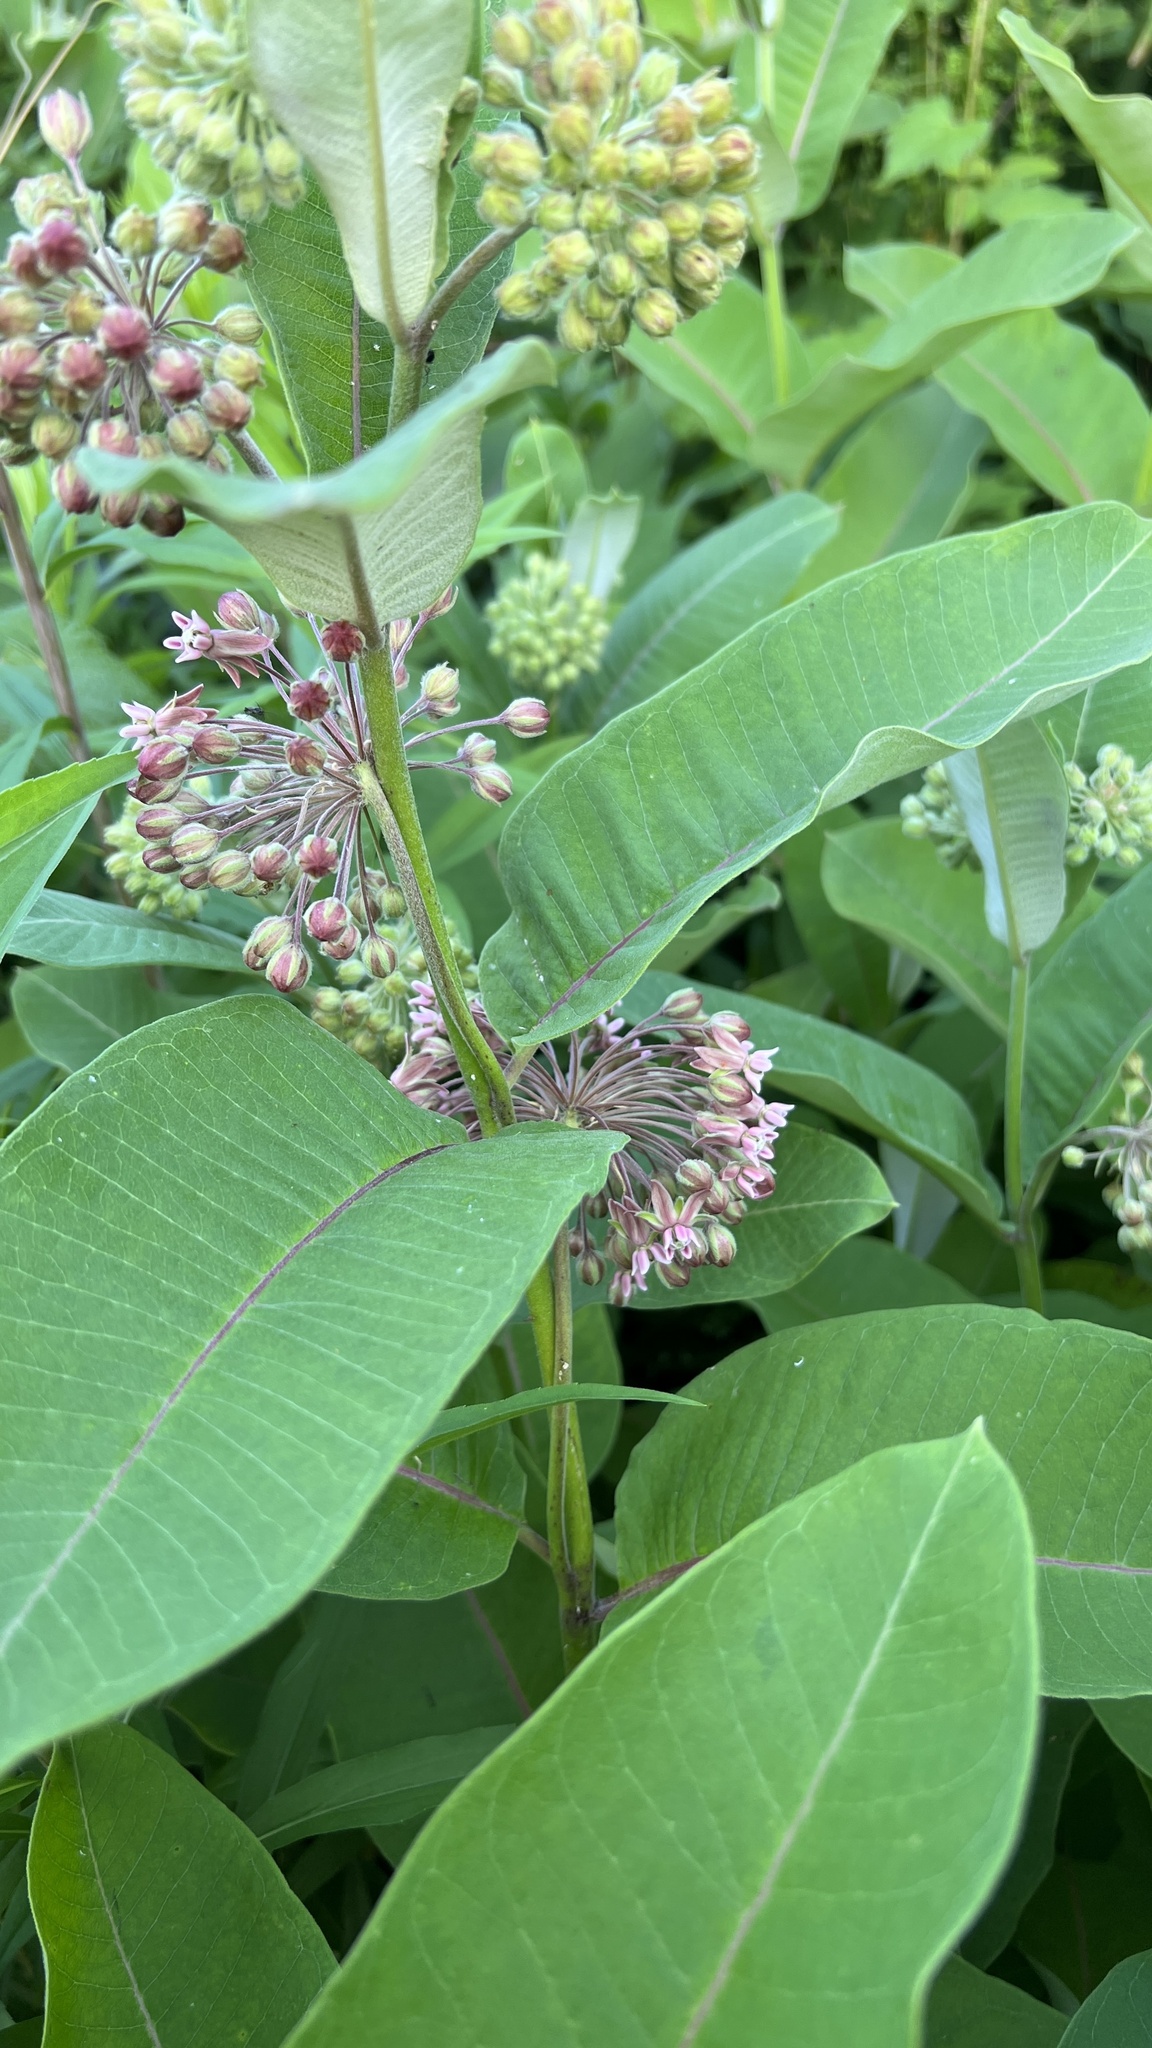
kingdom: Plantae
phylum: Tracheophyta
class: Magnoliopsida
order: Gentianales
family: Apocynaceae
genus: Asclepias
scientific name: Asclepias syriaca
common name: Common milkweed
